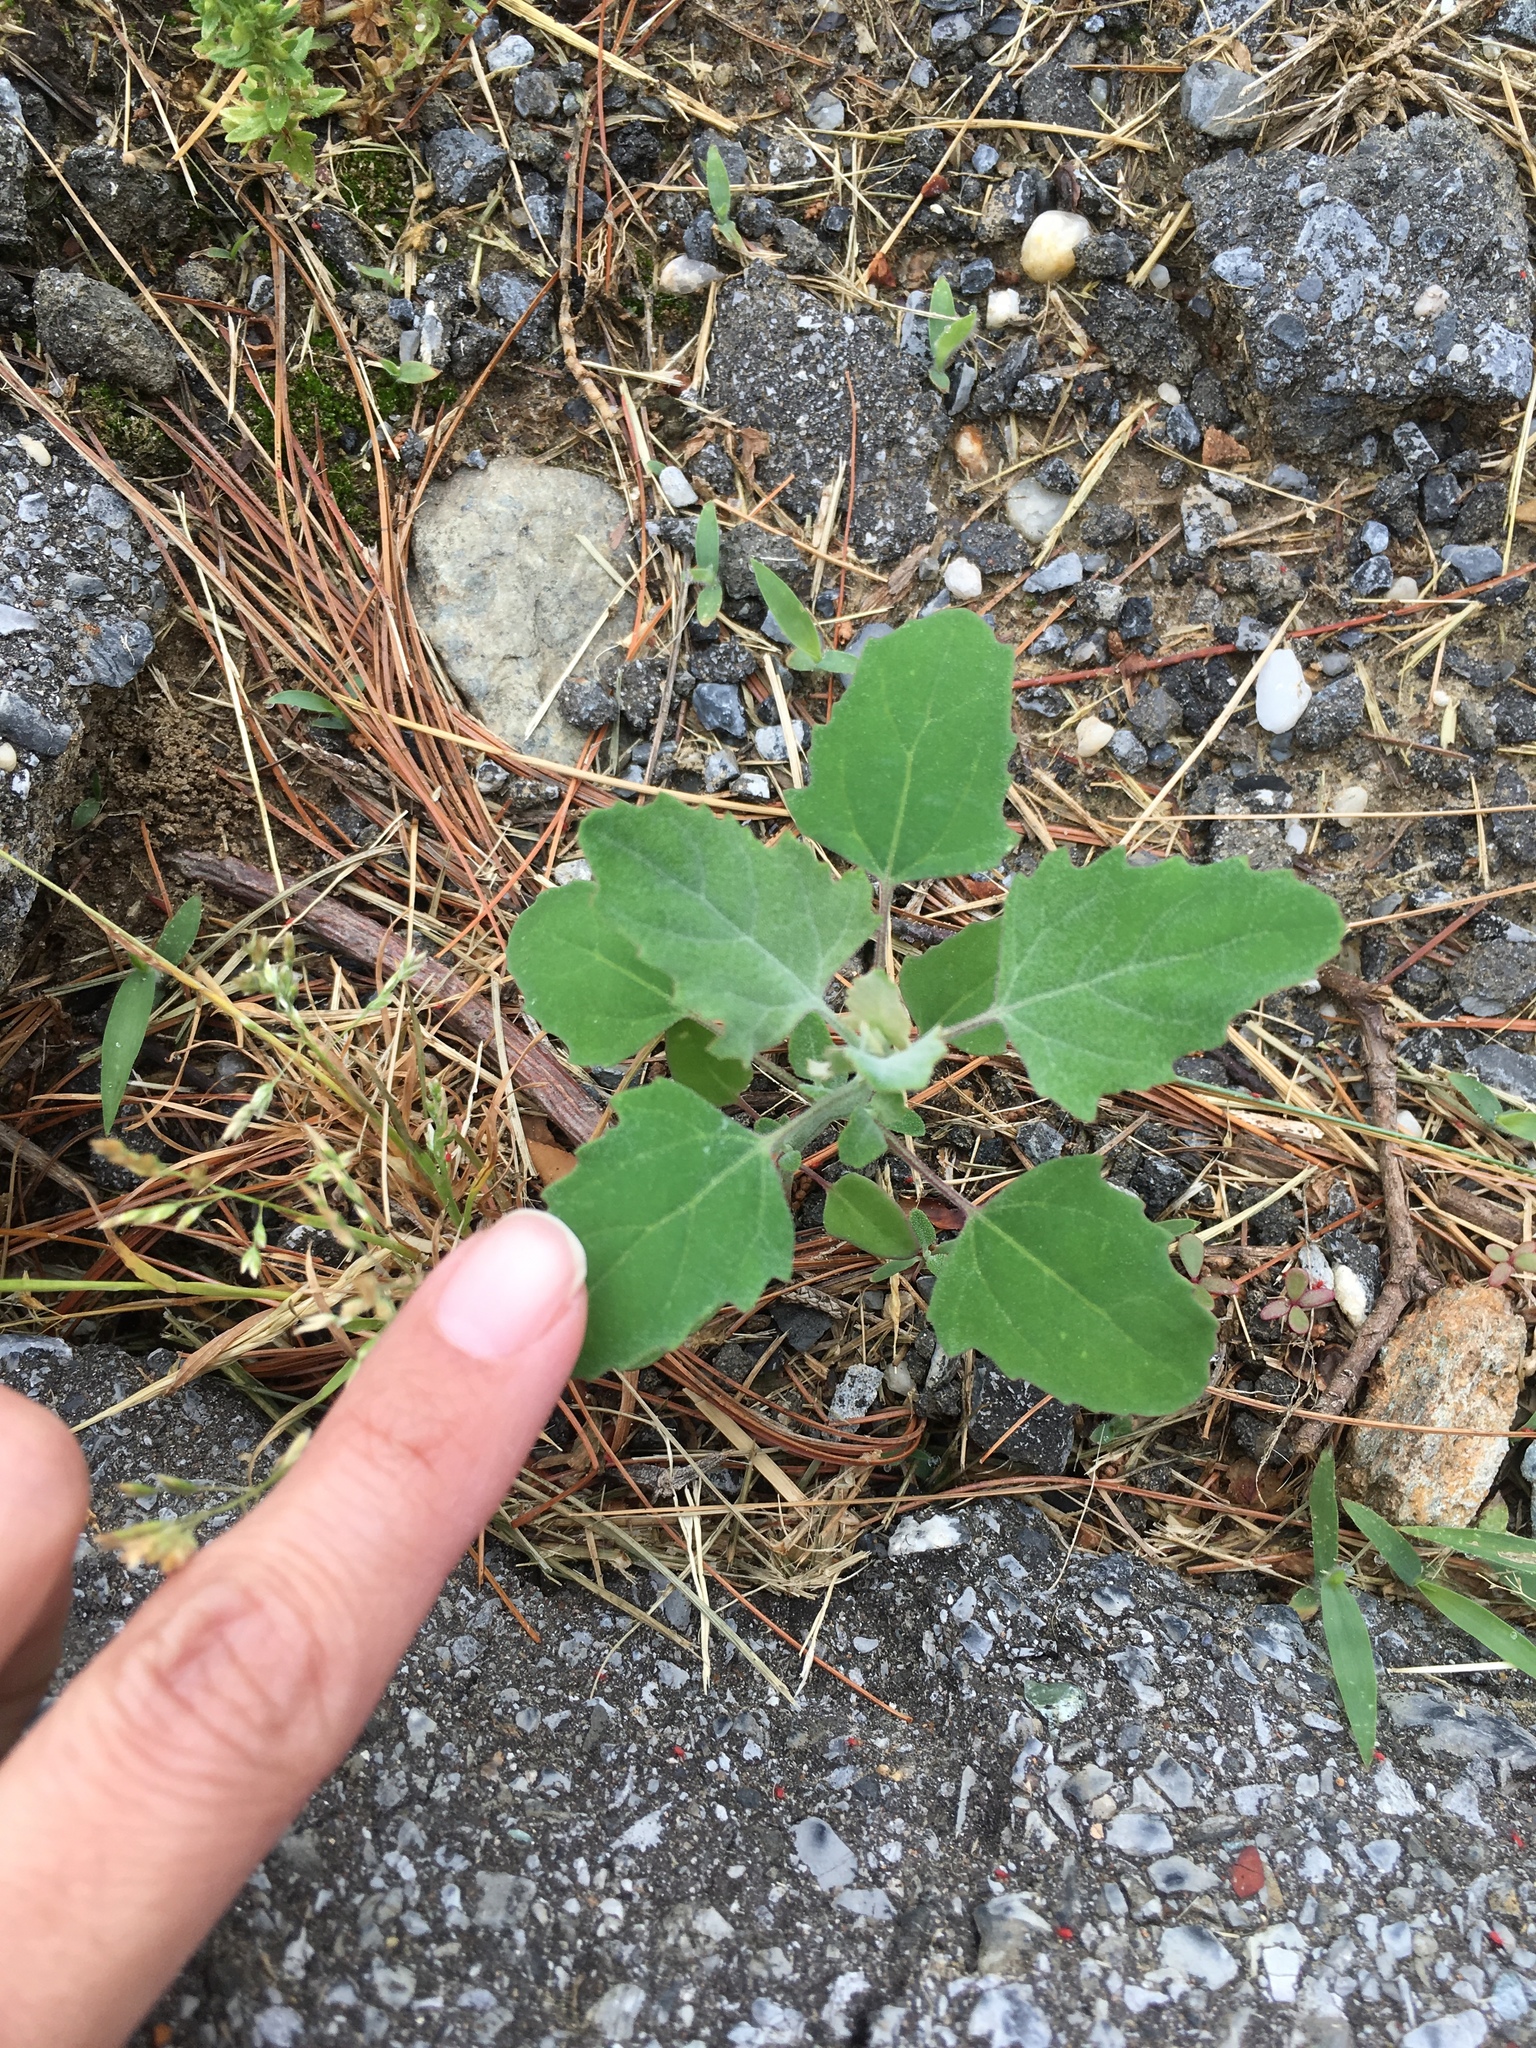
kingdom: Plantae
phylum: Tracheophyta
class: Magnoliopsida
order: Caryophyllales
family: Amaranthaceae
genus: Chenopodium
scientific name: Chenopodium album
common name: Fat-hen
